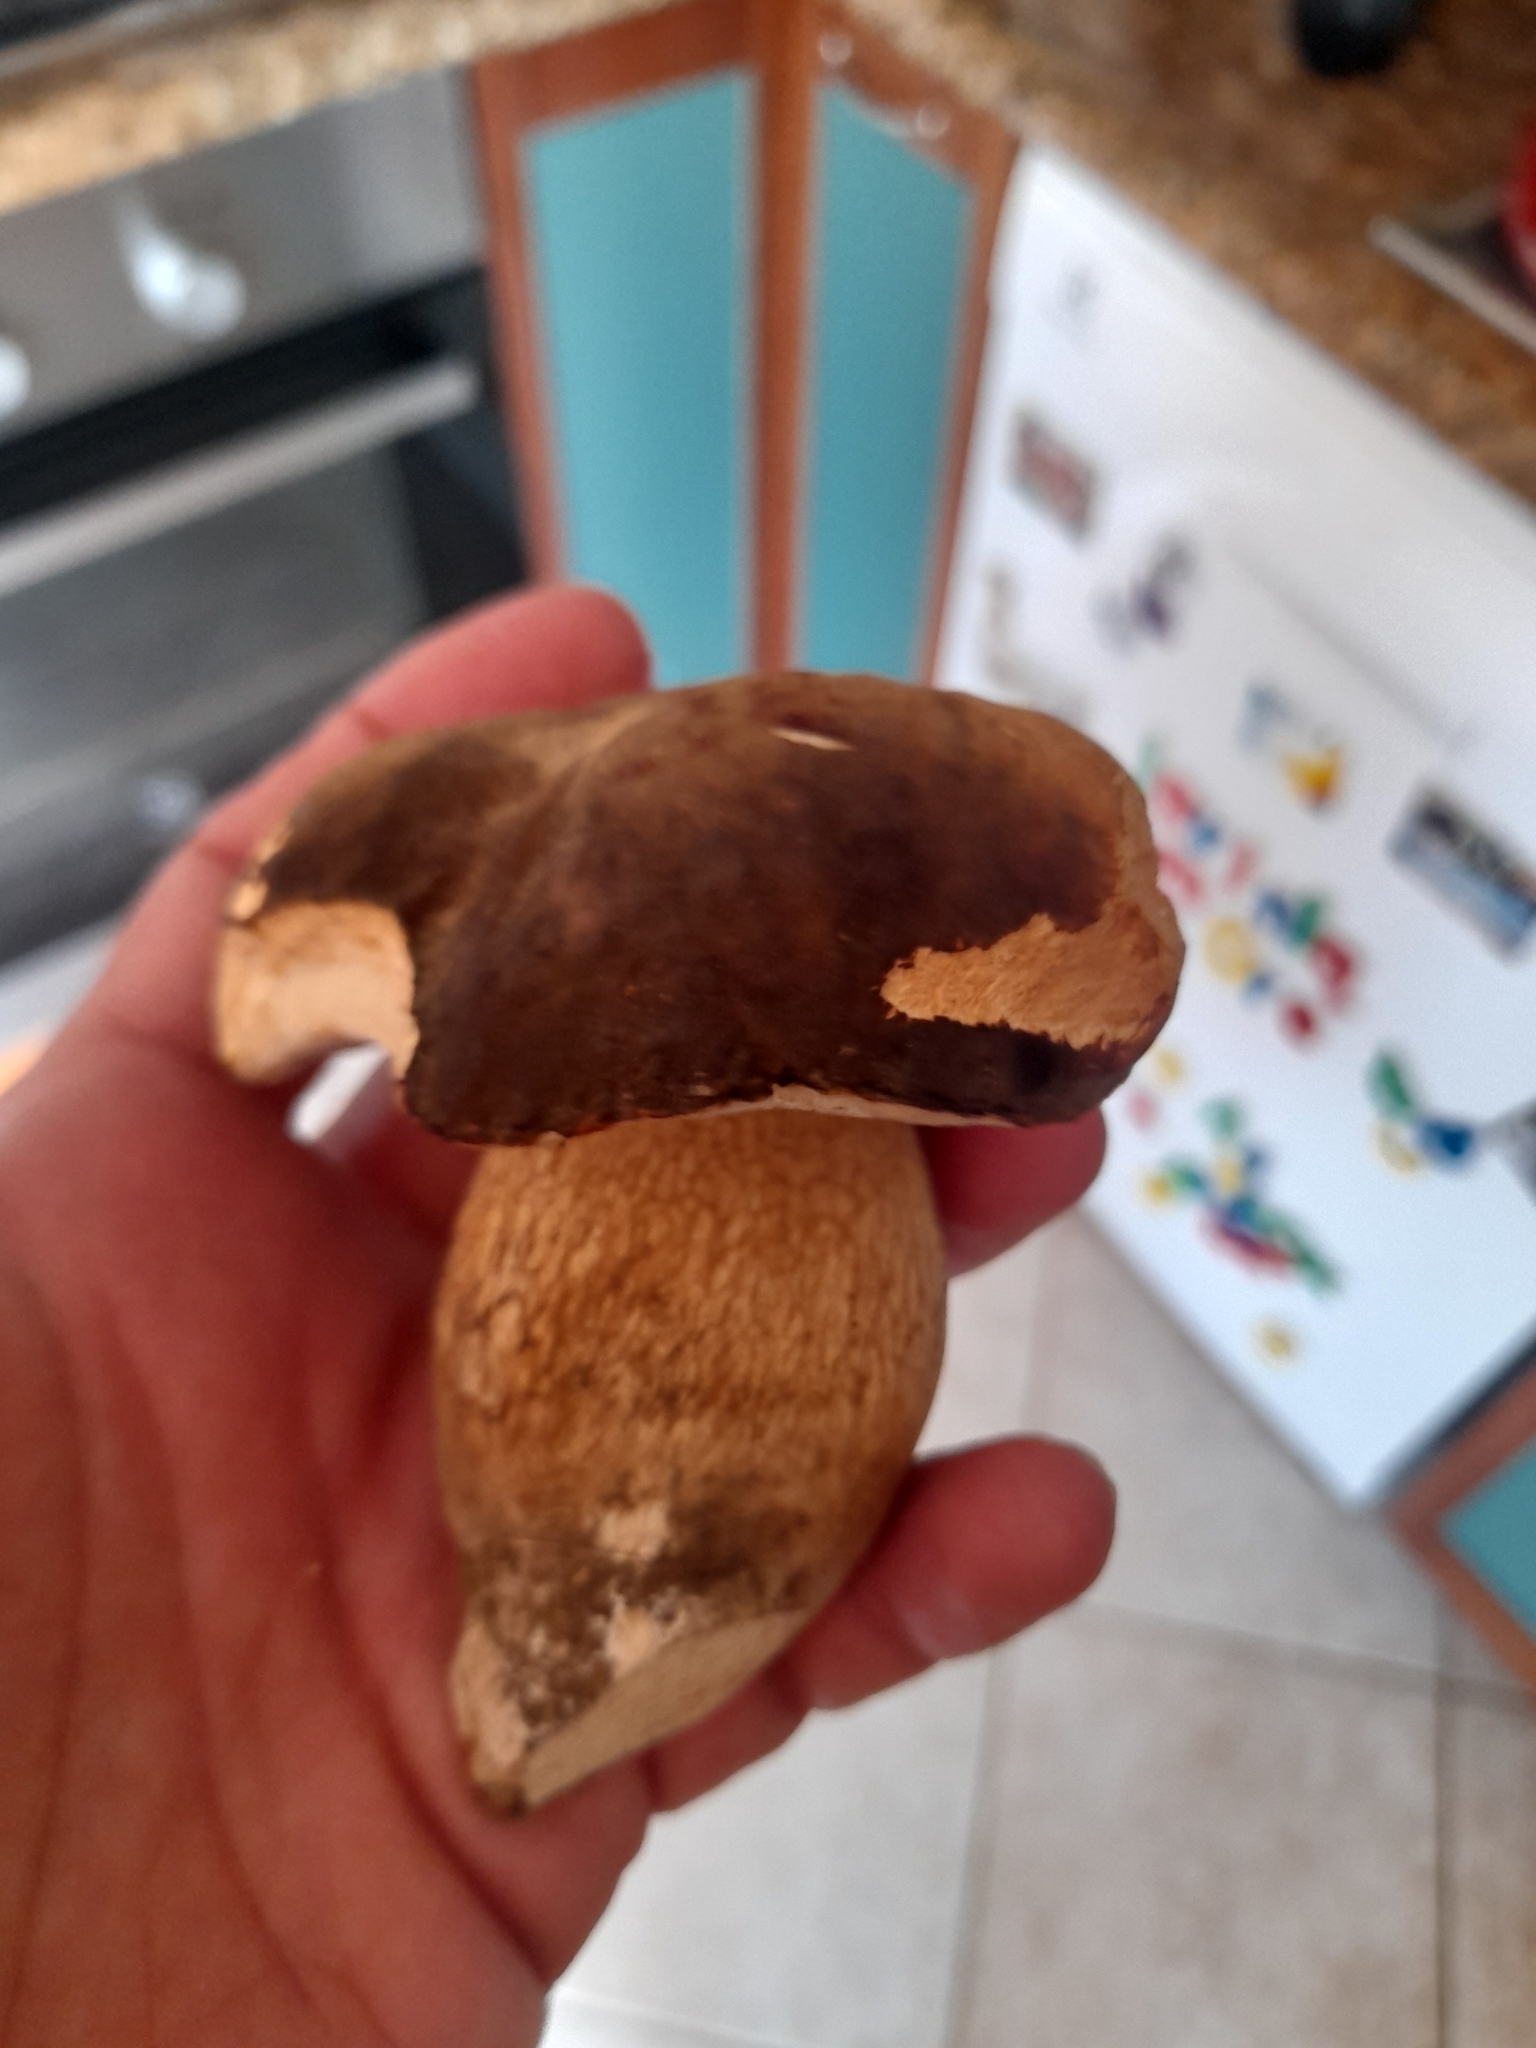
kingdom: Fungi
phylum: Basidiomycota
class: Agaricomycetes
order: Boletales
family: Boletaceae
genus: Boletus
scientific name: Boletus aereus
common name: Bronze bolete
